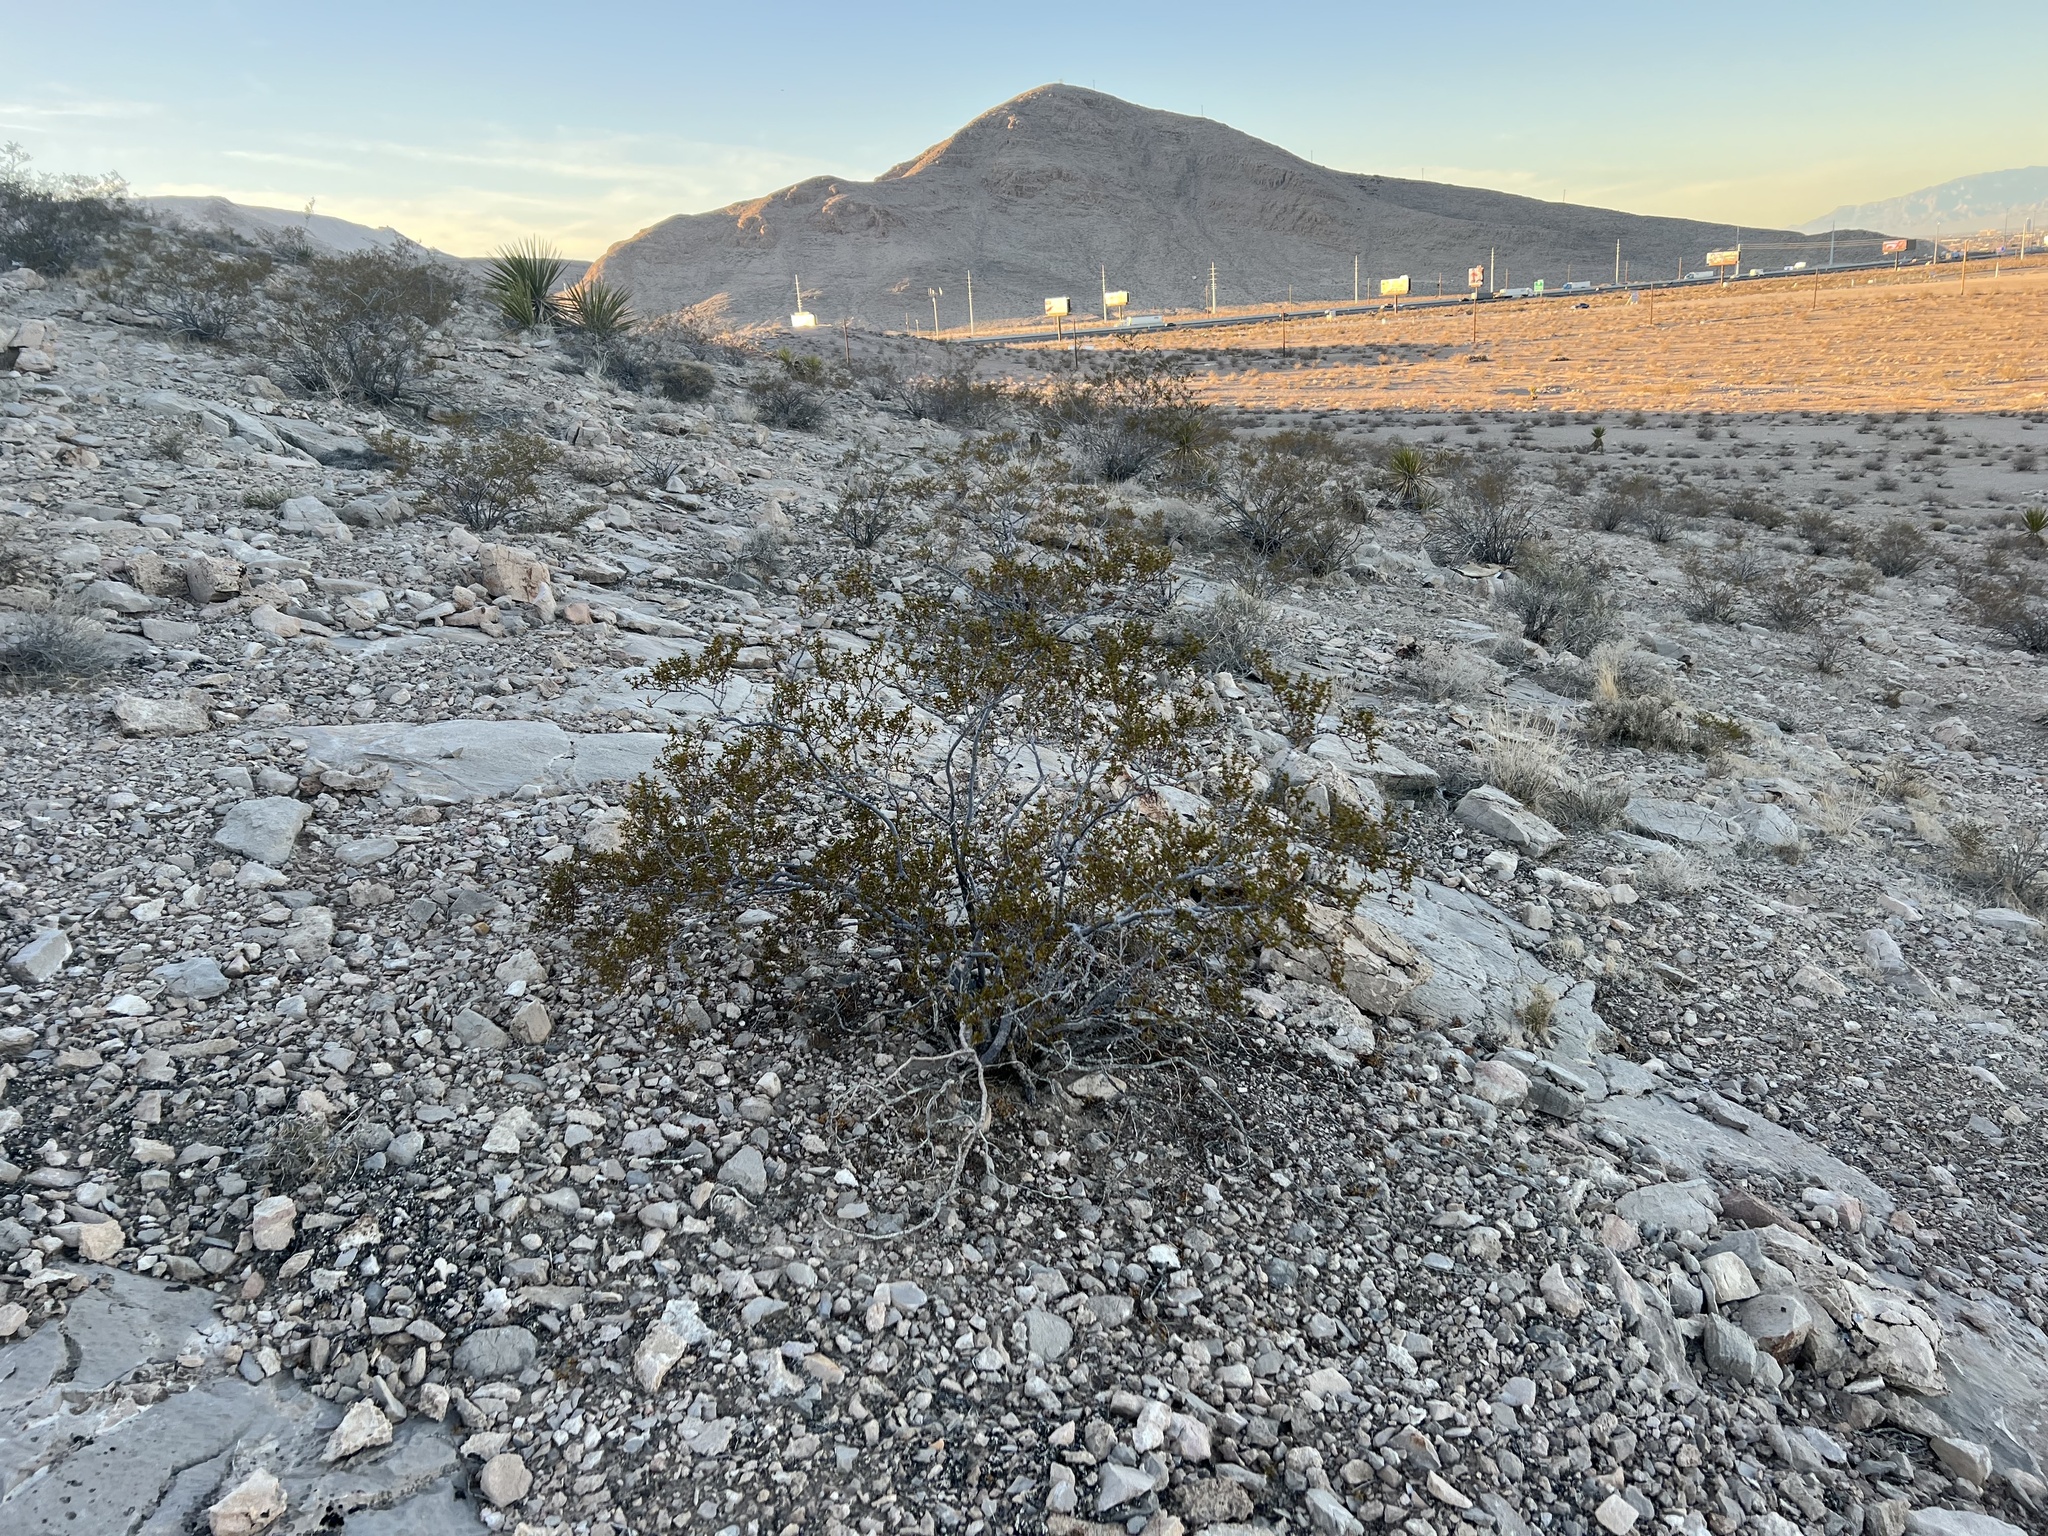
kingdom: Plantae
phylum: Tracheophyta
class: Magnoliopsida
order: Zygophyllales
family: Zygophyllaceae
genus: Larrea
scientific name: Larrea tridentata
